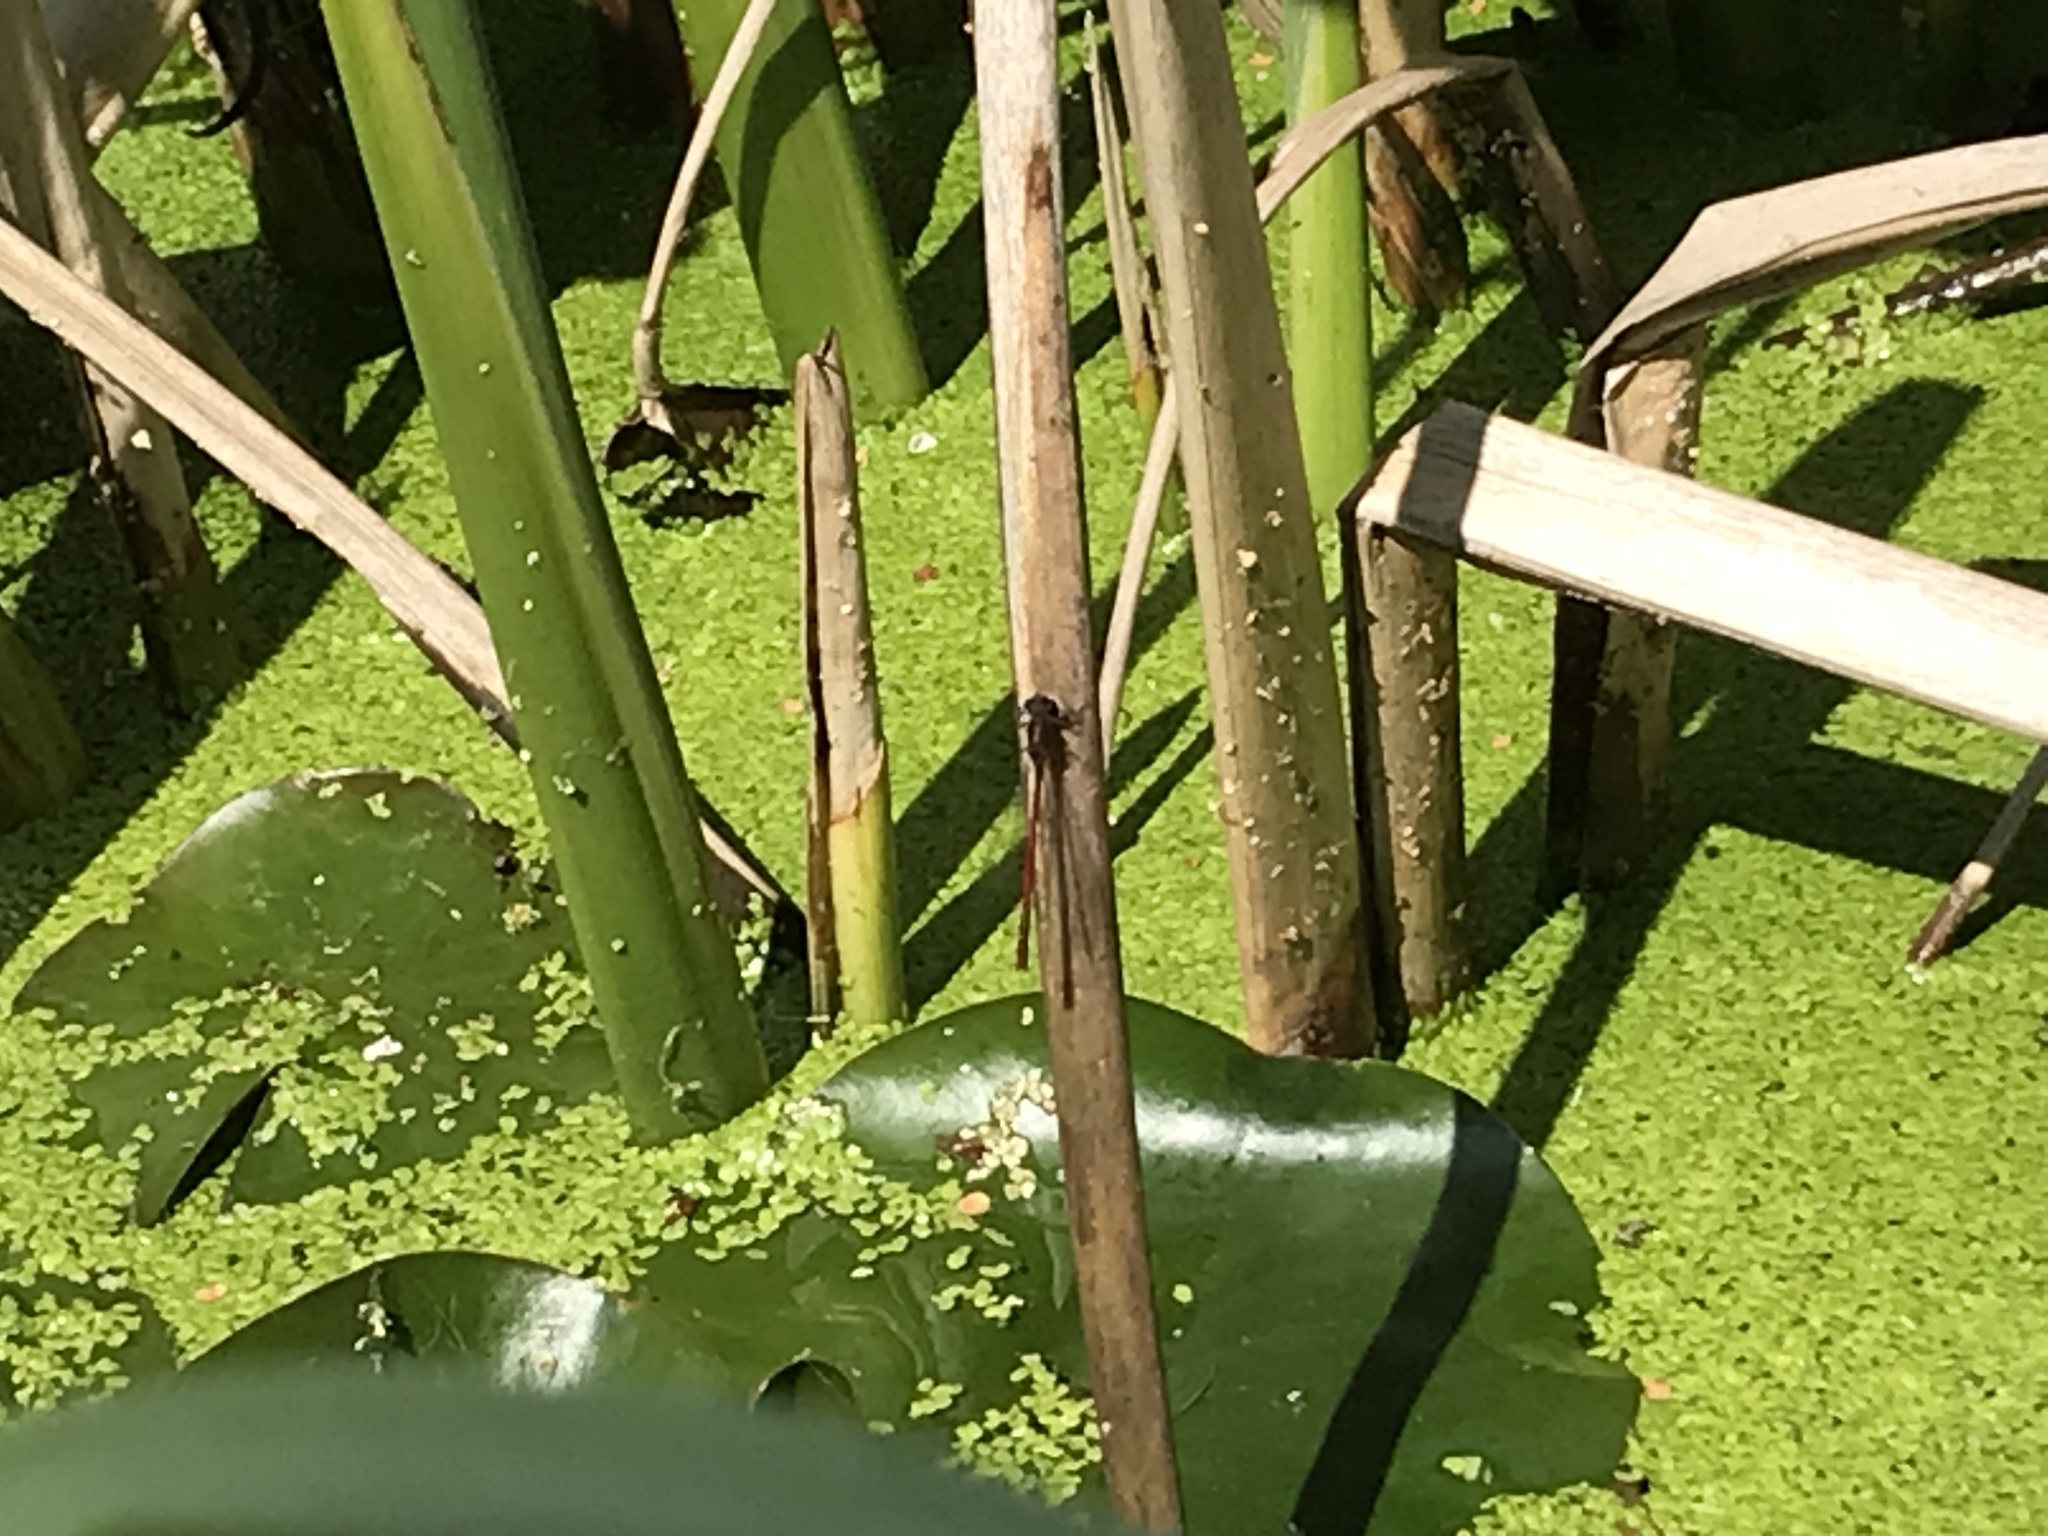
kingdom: Animalia
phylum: Arthropoda
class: Insecta
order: Odonata
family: Coenagrionidae
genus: Pyrrhosoma
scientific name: Pyrrhosoma nymphula
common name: Large red damsel
